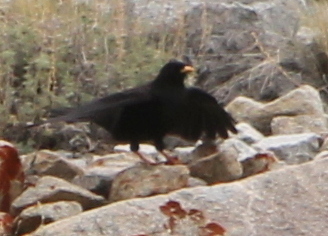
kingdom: Animalia
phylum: Chordata
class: Aves
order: Passeriformes
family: Corvidae
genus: Pyrrhocorax
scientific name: Pyrrhocorax graculus
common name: Alpine chough
